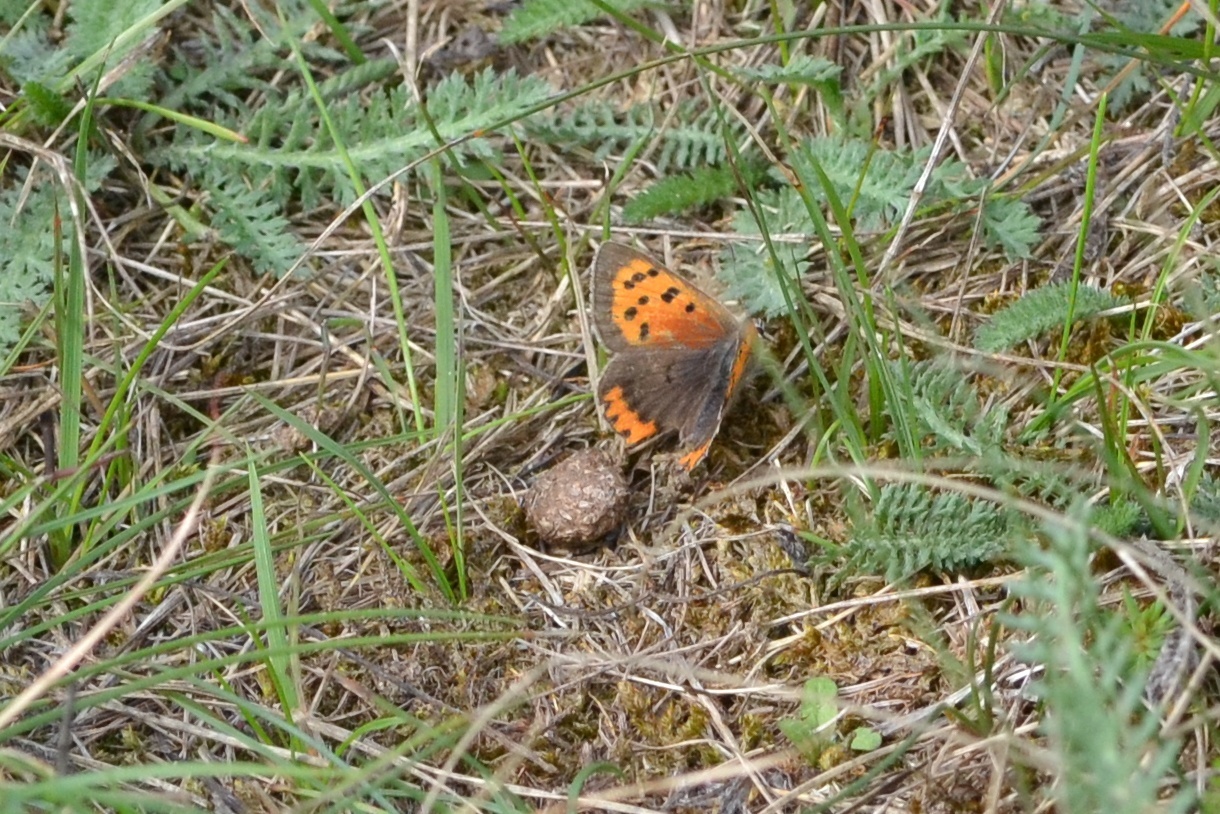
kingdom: Animalia
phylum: Arthropoda
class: Insecta
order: Lepidoptera
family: Lycaenidae
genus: Lycaena
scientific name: Lycaena phlaeas
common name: Small copper
